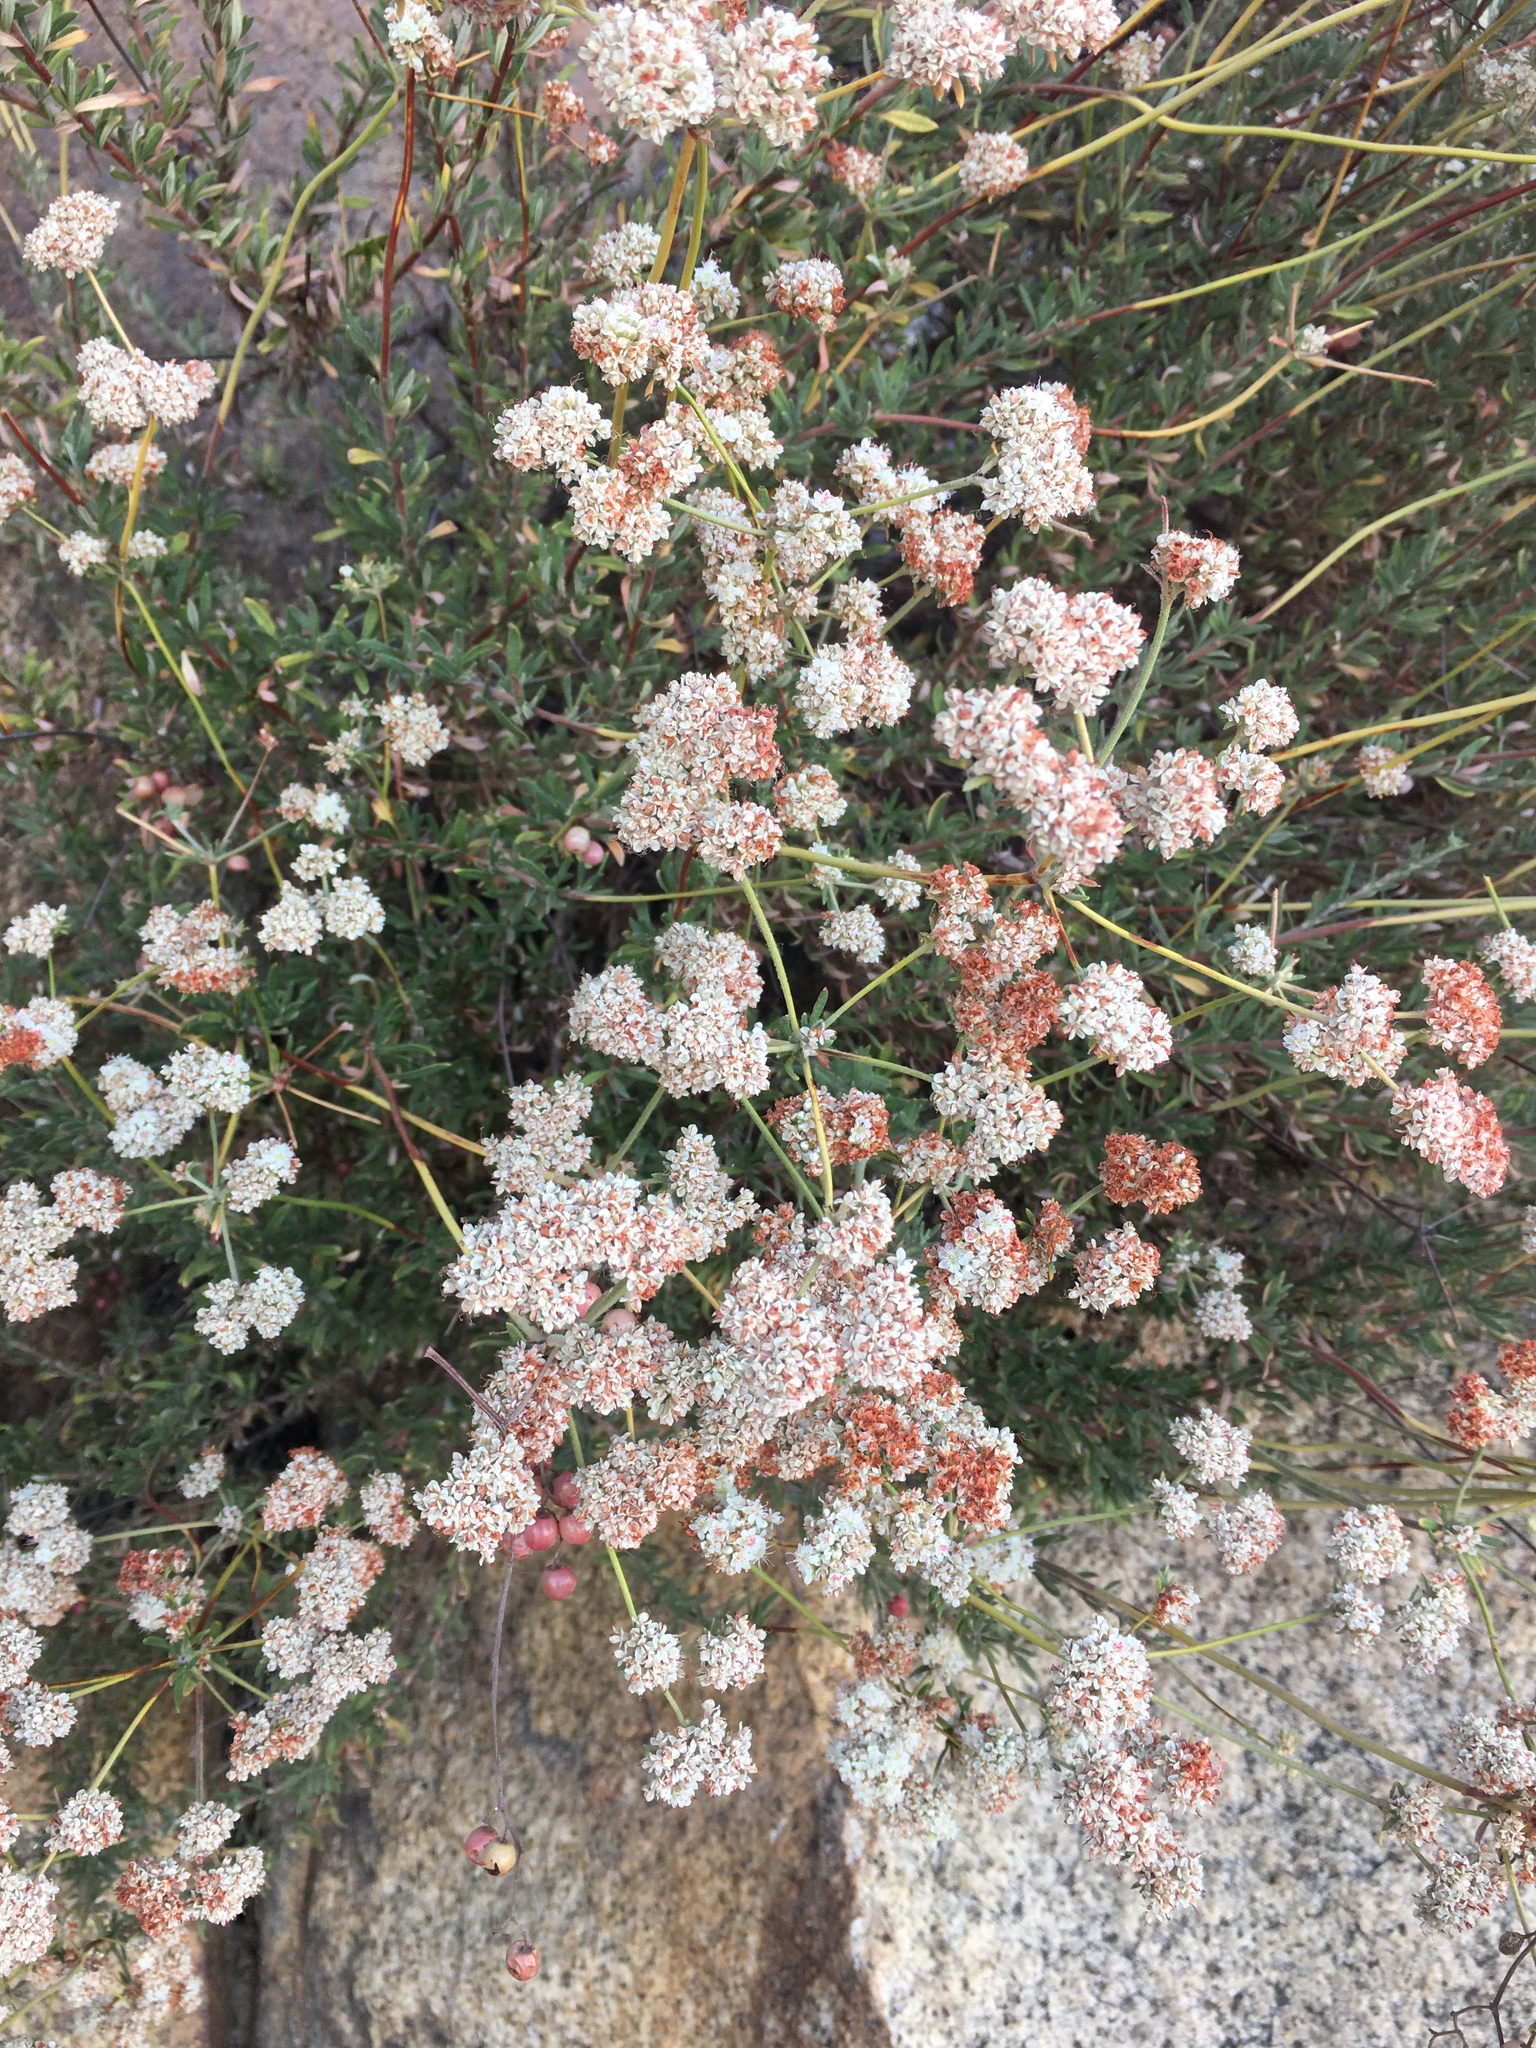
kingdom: Plantae
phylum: Tracheophyta
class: Magnoliopsida
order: Caryophyllales
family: Polygonaceae
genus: Eriogonum
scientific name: Eriogonum fasciculatum
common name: California wild buckwheat
